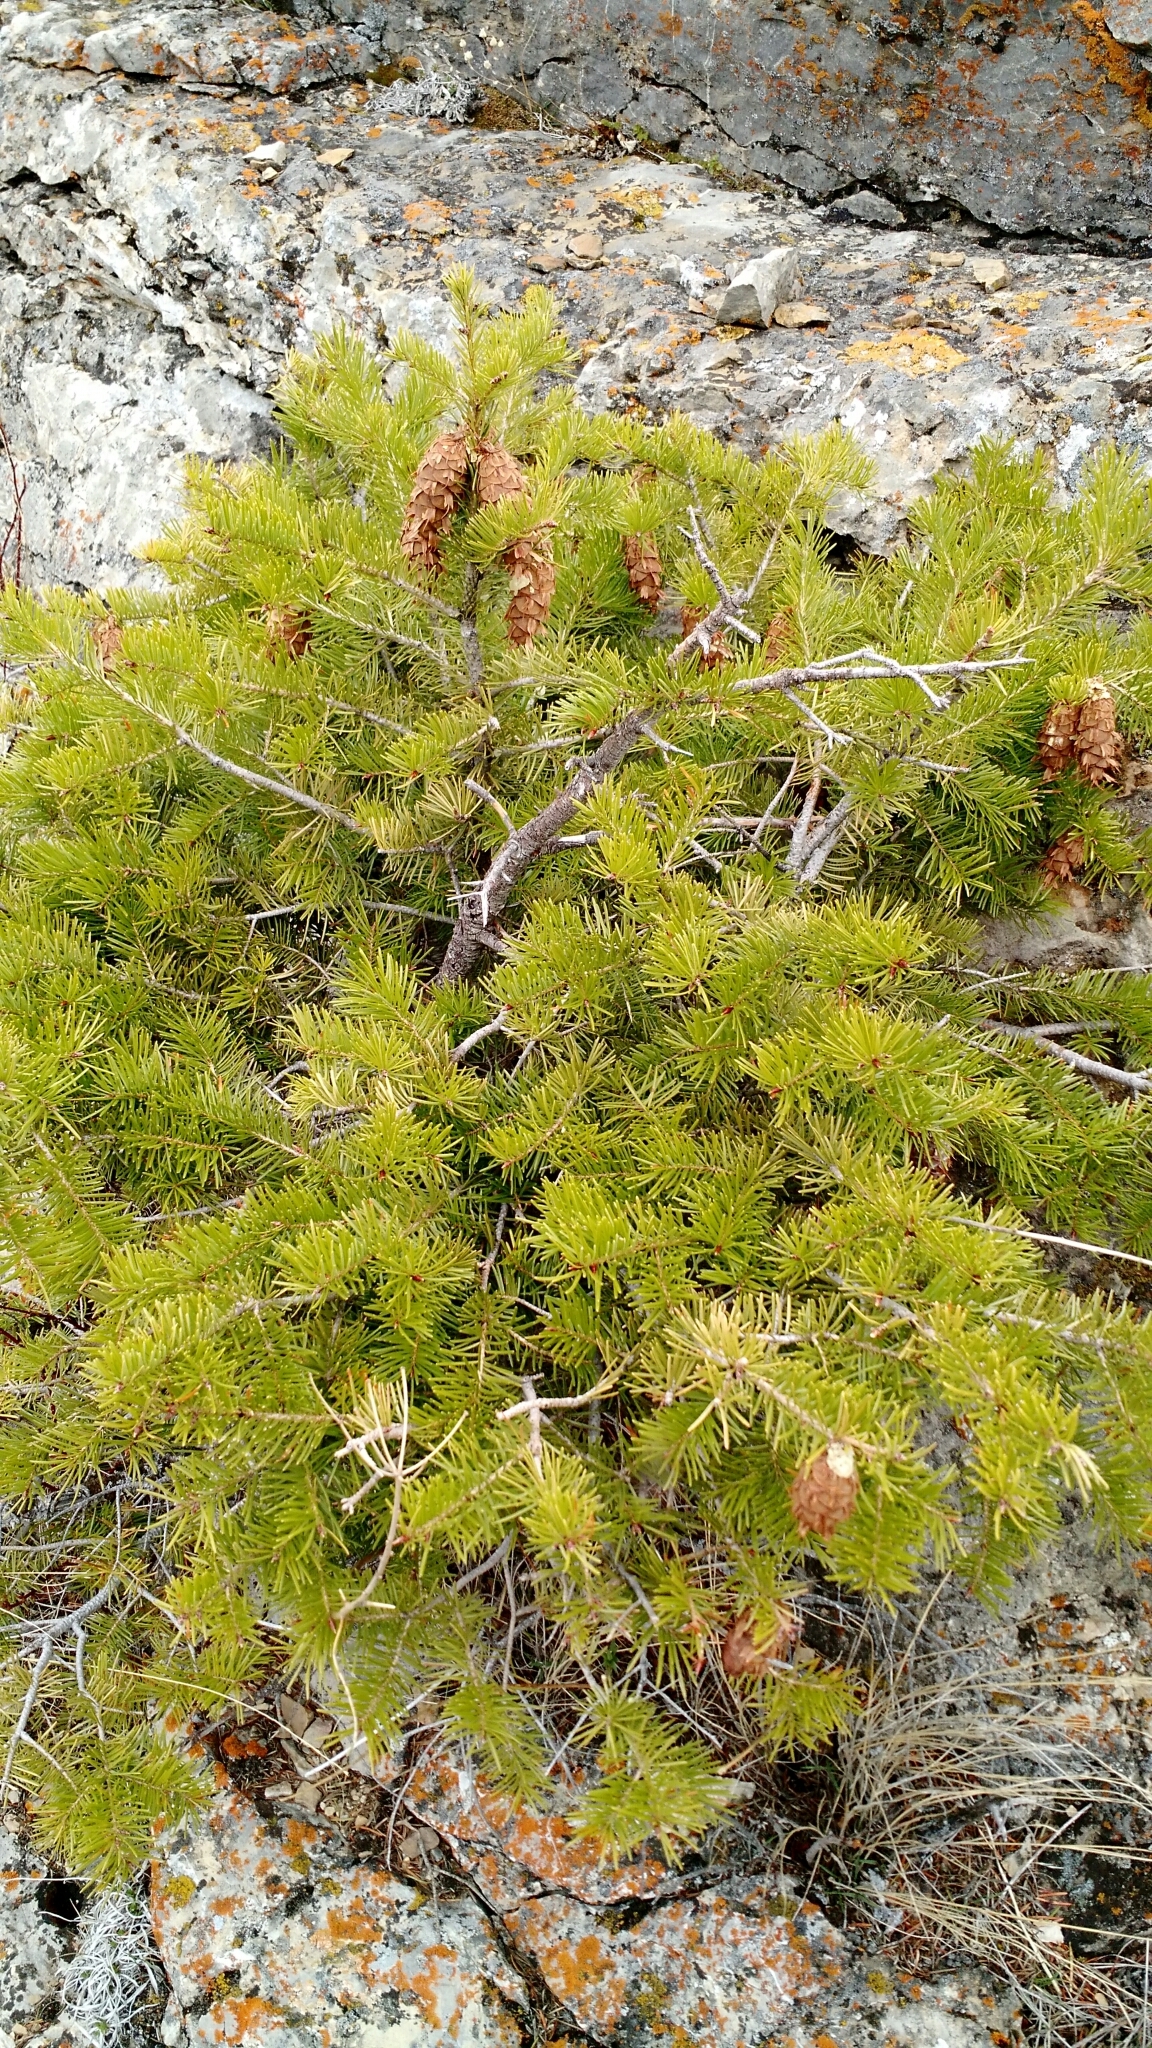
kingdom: Plantae
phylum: Tracheophyta
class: Pinopsida
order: Pinales
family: Pinaceae
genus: Pseudotsuga
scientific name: Pseudotsuga menziesii
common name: Douglas fir
